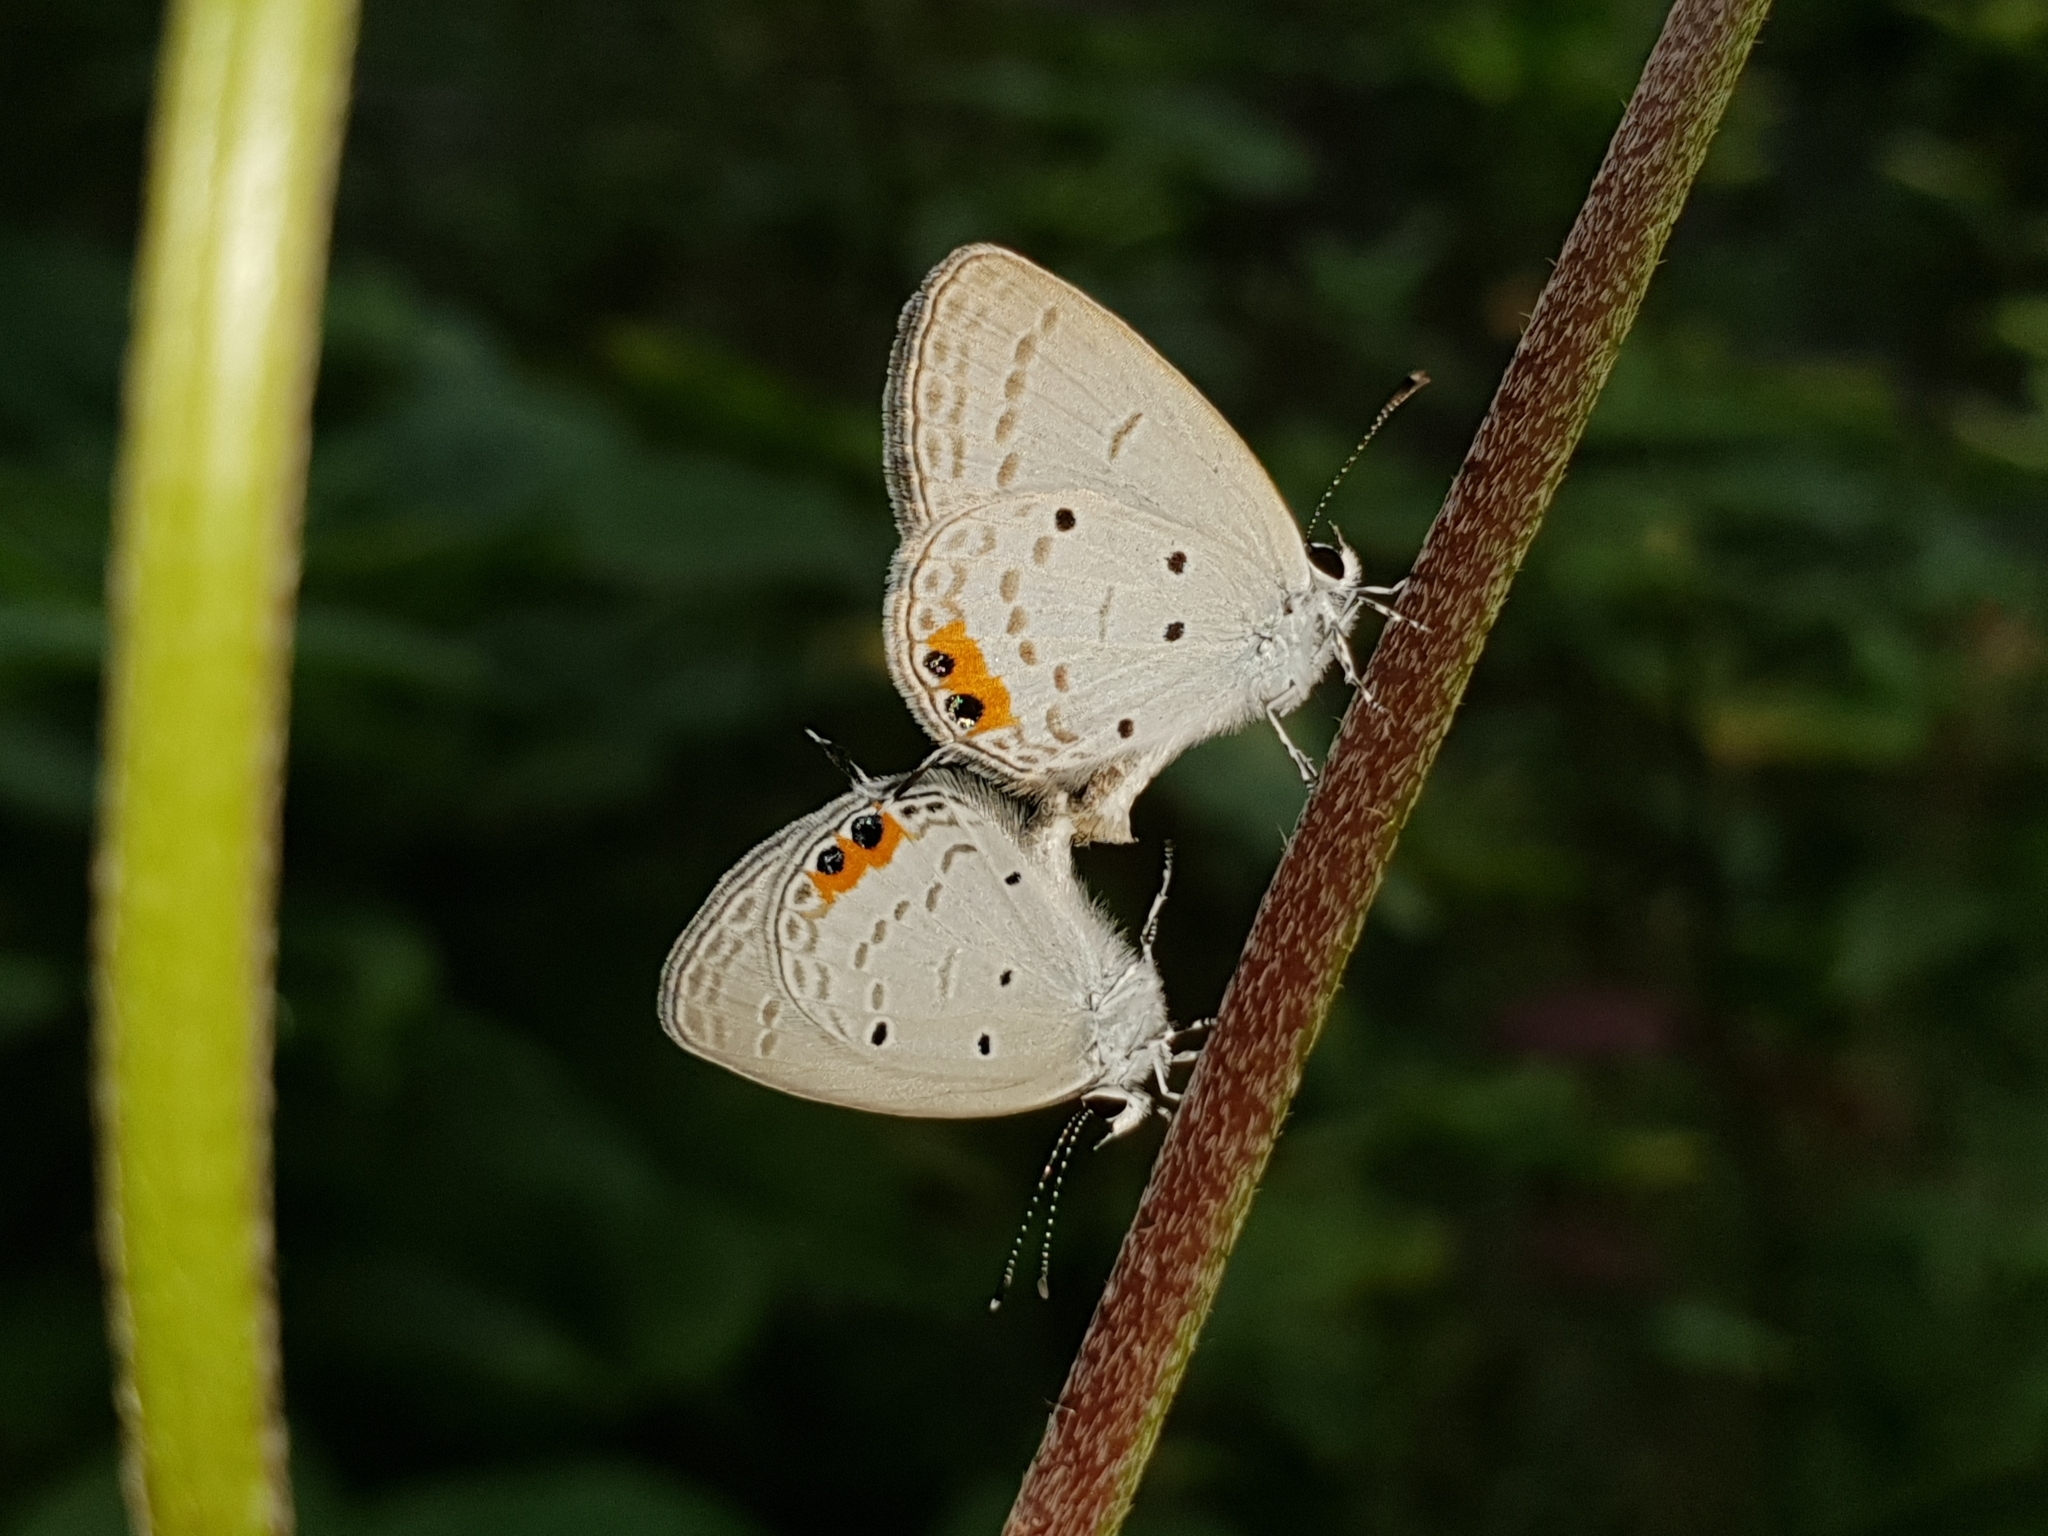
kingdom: Animalia
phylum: Arthropoda
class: Insecta
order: Lepidoptera
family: Lycaenidae
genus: Everes
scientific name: Everes lacturnus
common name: Orange-tipped pea-blue
